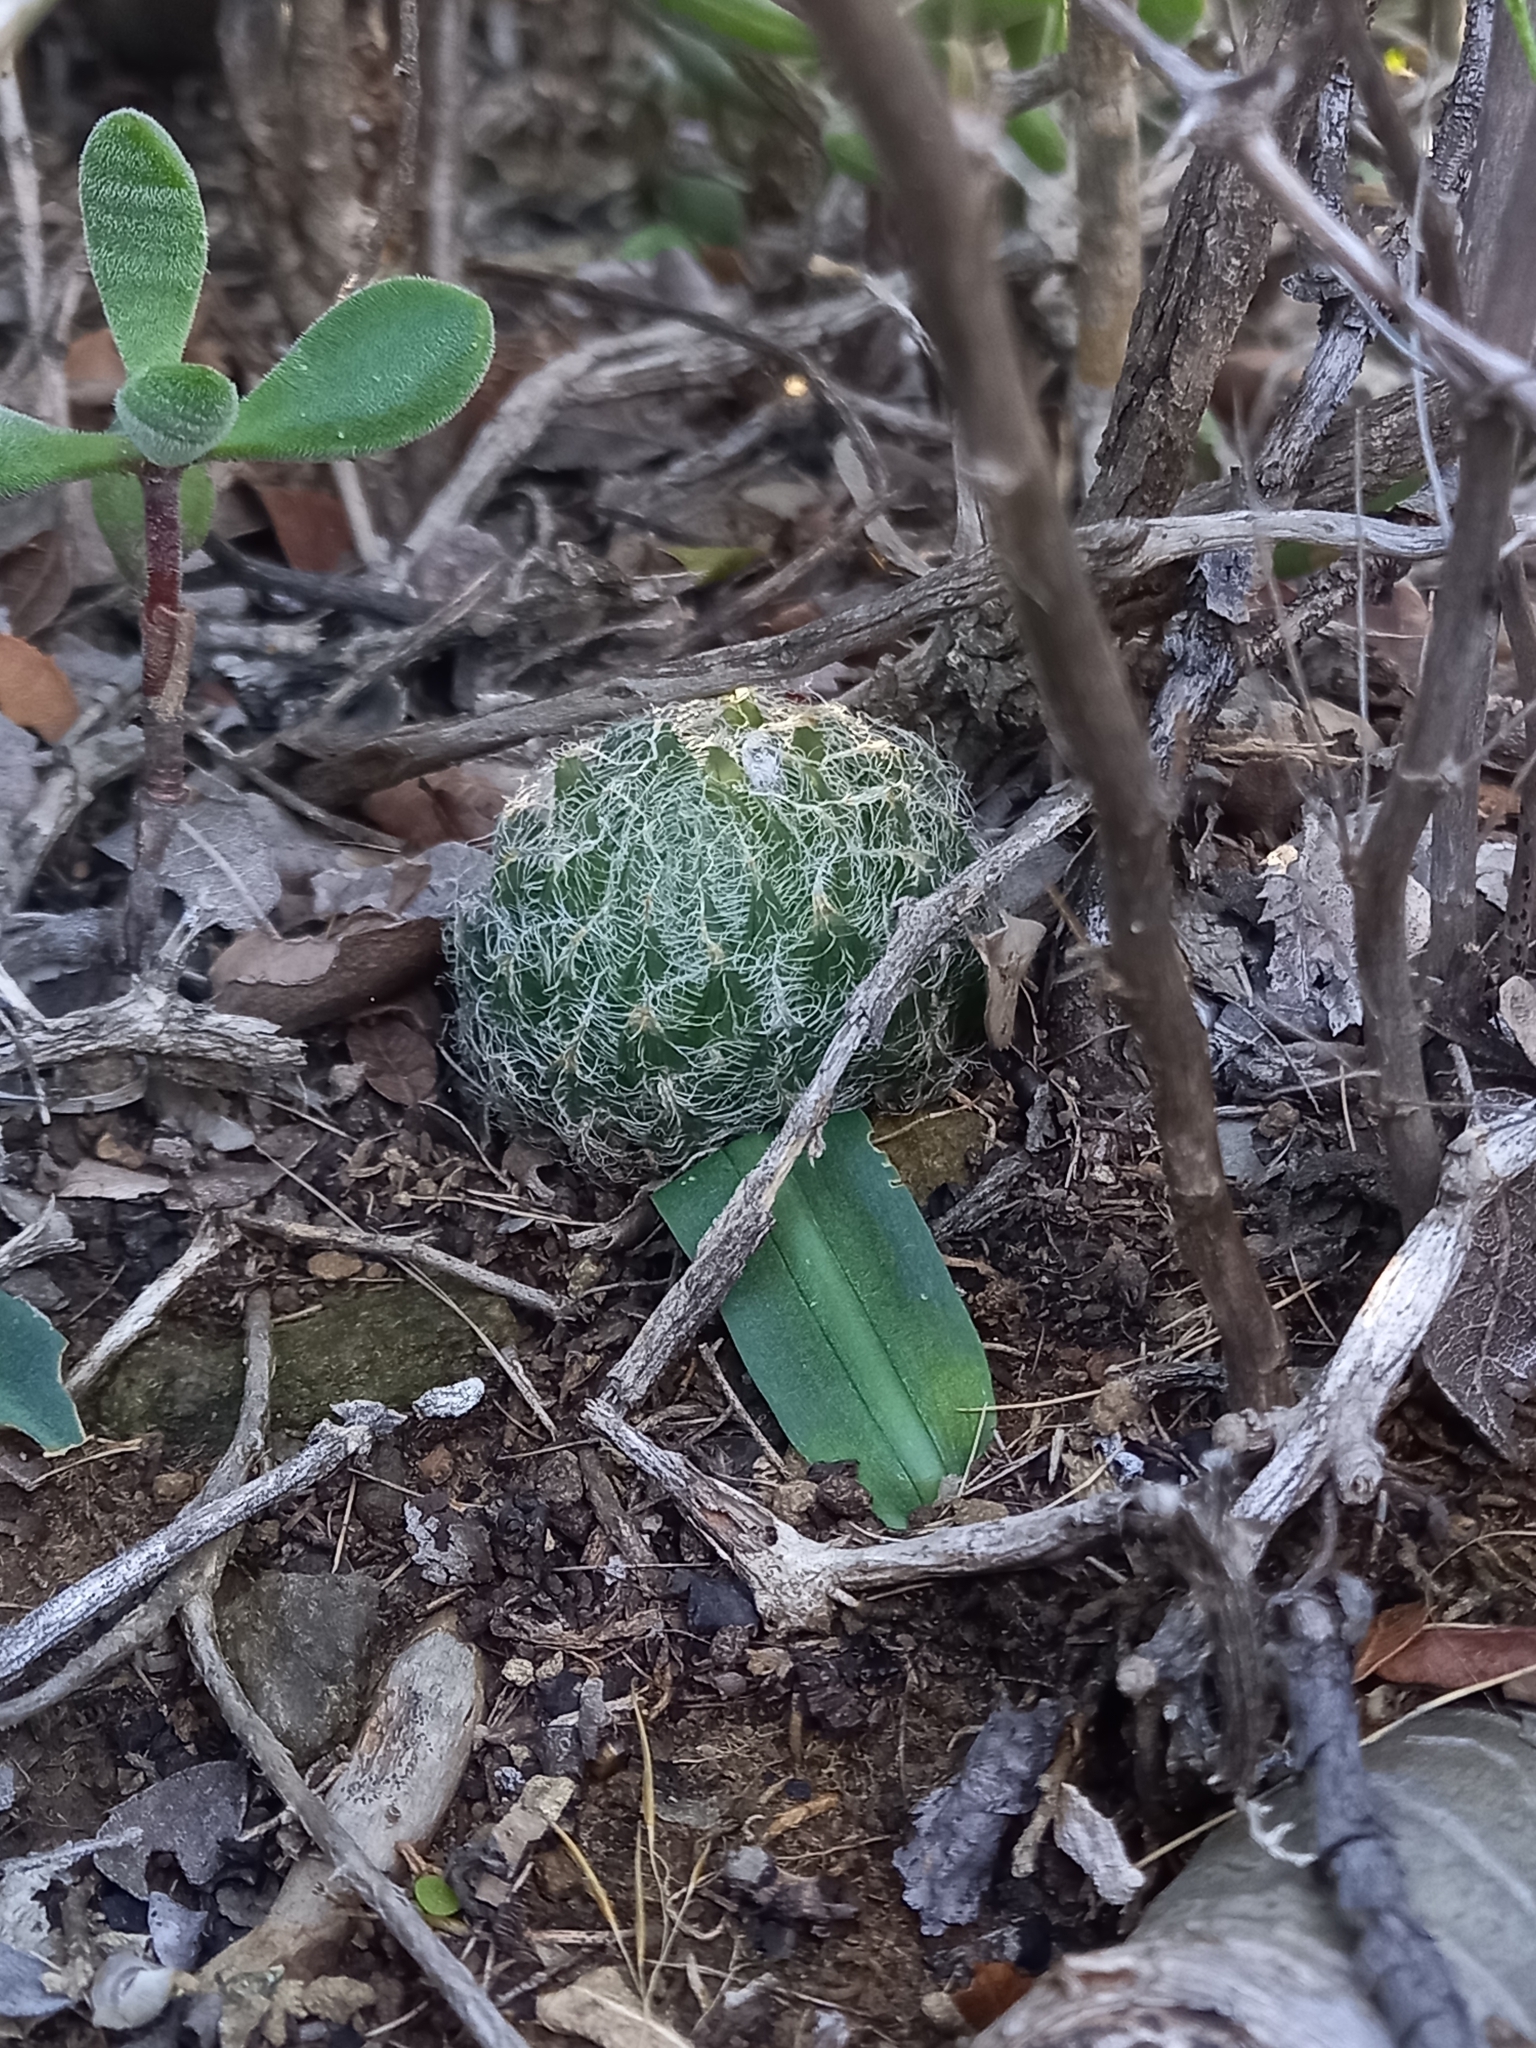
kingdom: Plantae
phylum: Tracheophyta
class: Liliopsida
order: Asparagales
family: Asphodelaceae
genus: Haworthia
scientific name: Haworthia bolusii
